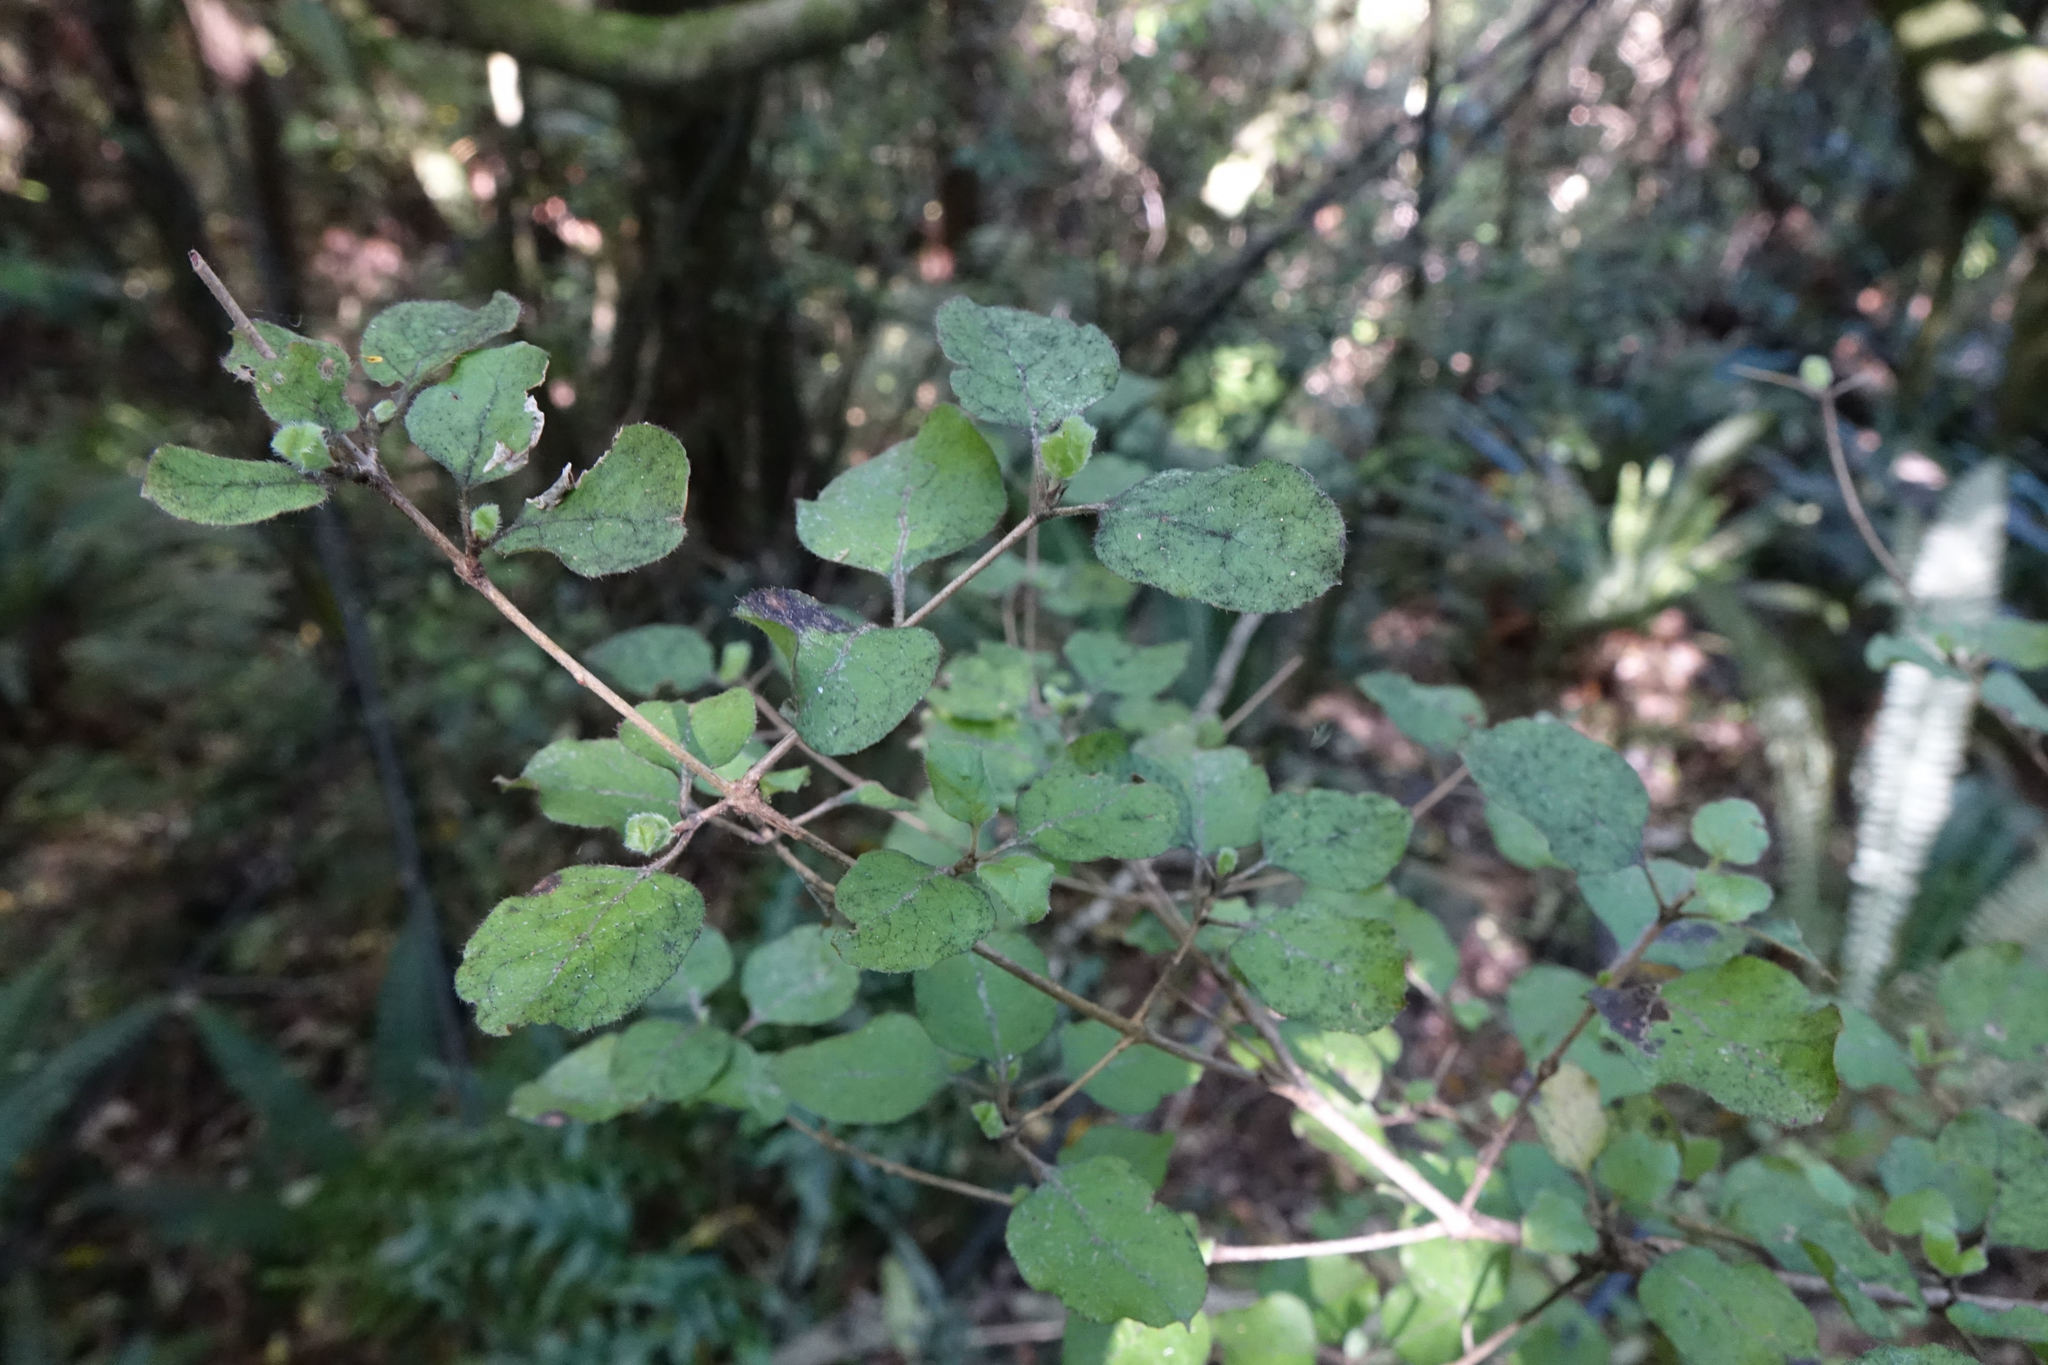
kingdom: Plantae
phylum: Tracheophyta
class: Magnoliopsida
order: Gentianales
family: Rubiaceae
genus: Coprosma
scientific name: Coprosma rotundifolia
